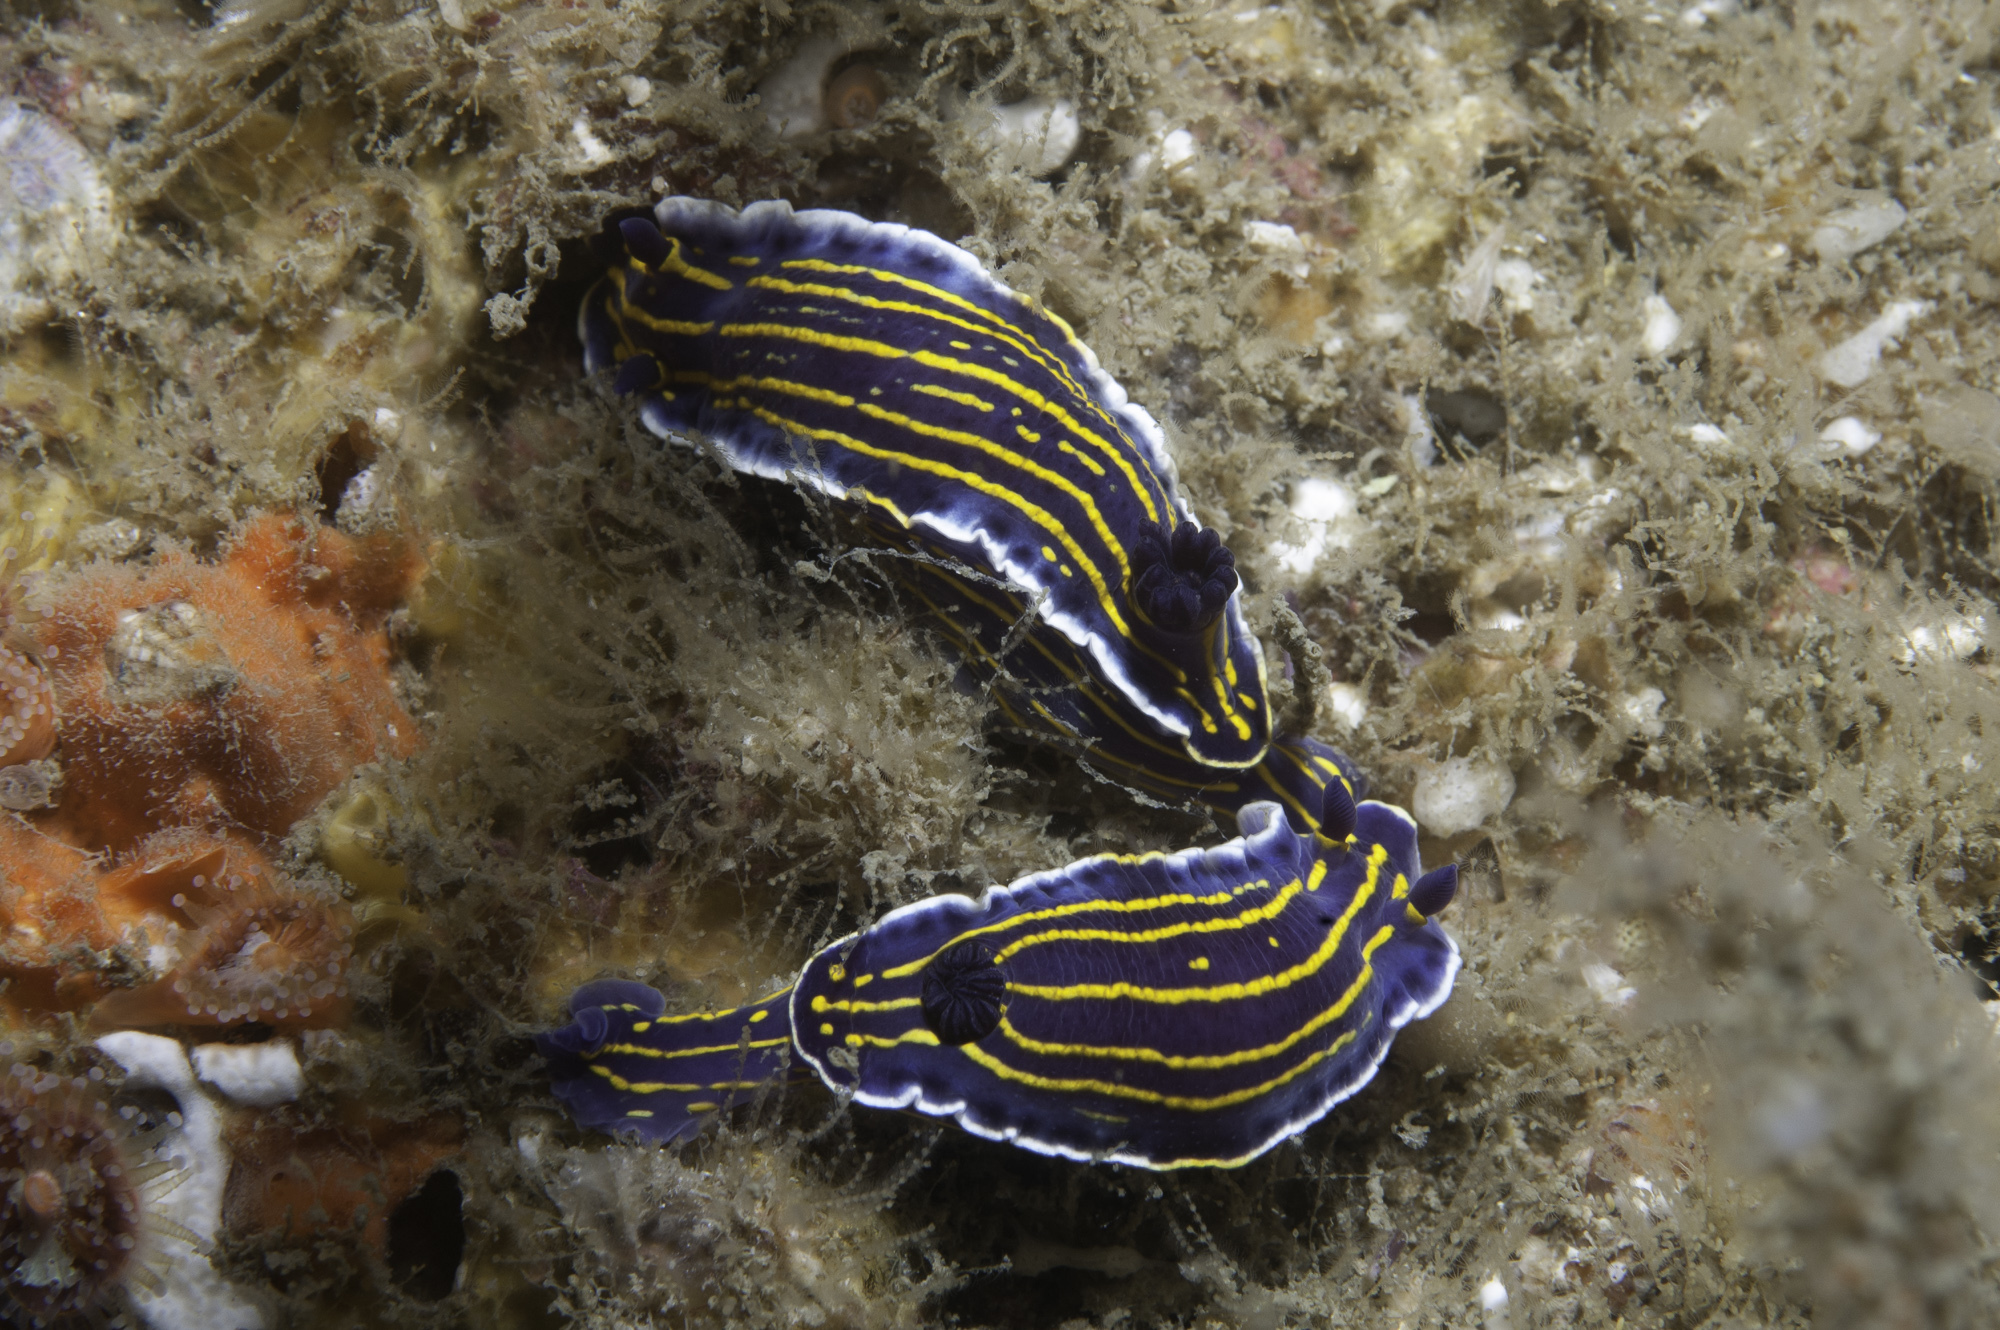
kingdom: Animalia
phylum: Mollusca
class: Gastropoda
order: Nudibranchia
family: Chromodorididae
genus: Felimare
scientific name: Felimare lajensis
